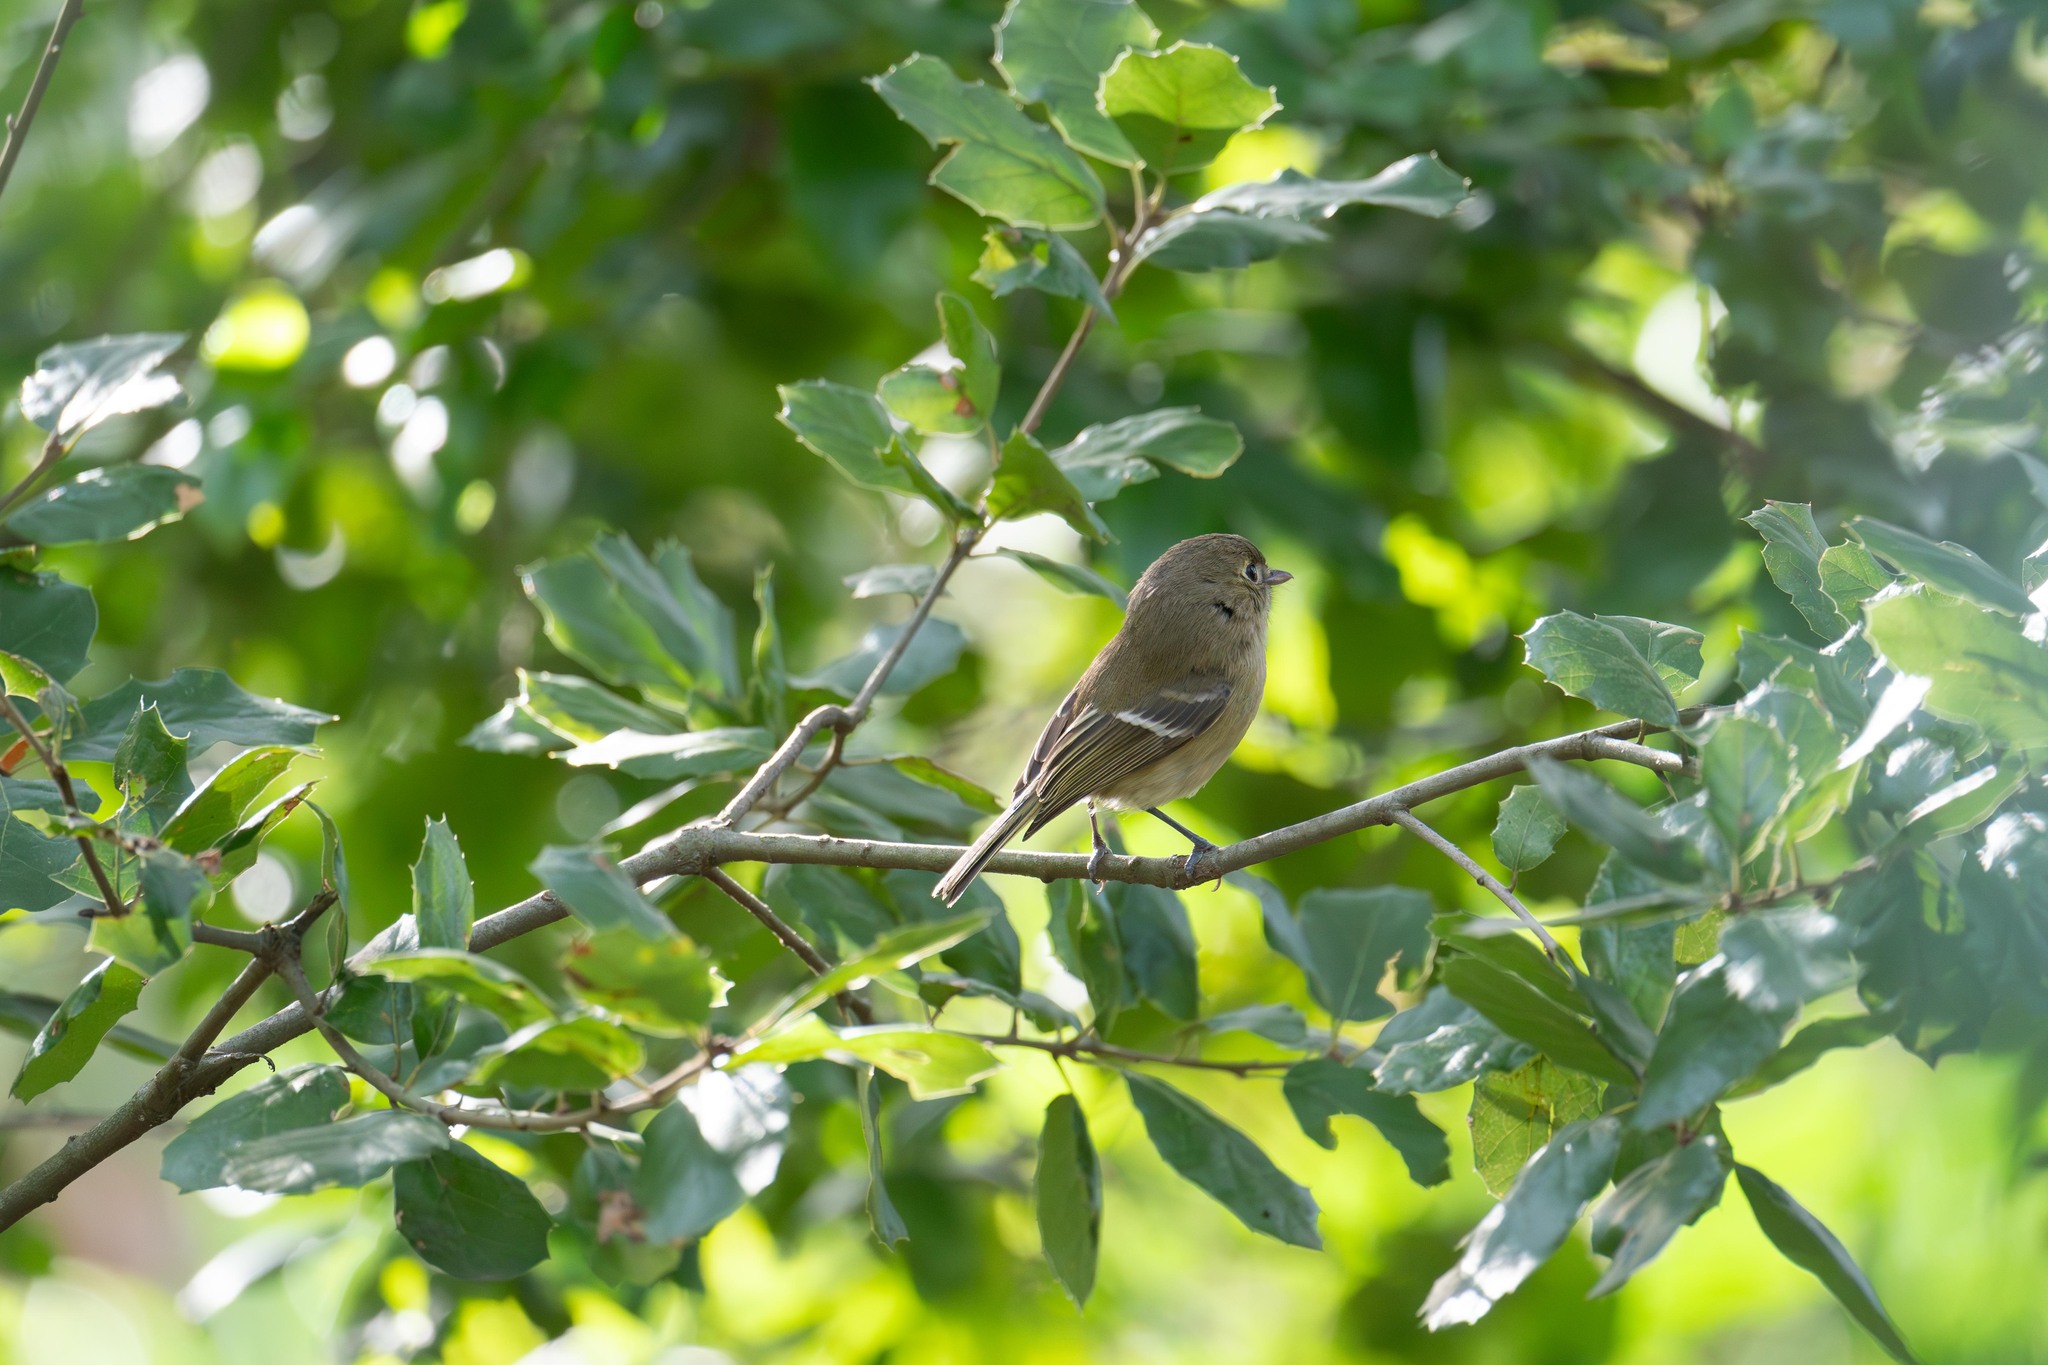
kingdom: Animalia
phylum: Chordata
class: Aves
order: Passeriformes
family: Vireonidae
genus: Vireo
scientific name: Vireo huttoni
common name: Hutton's vireo
